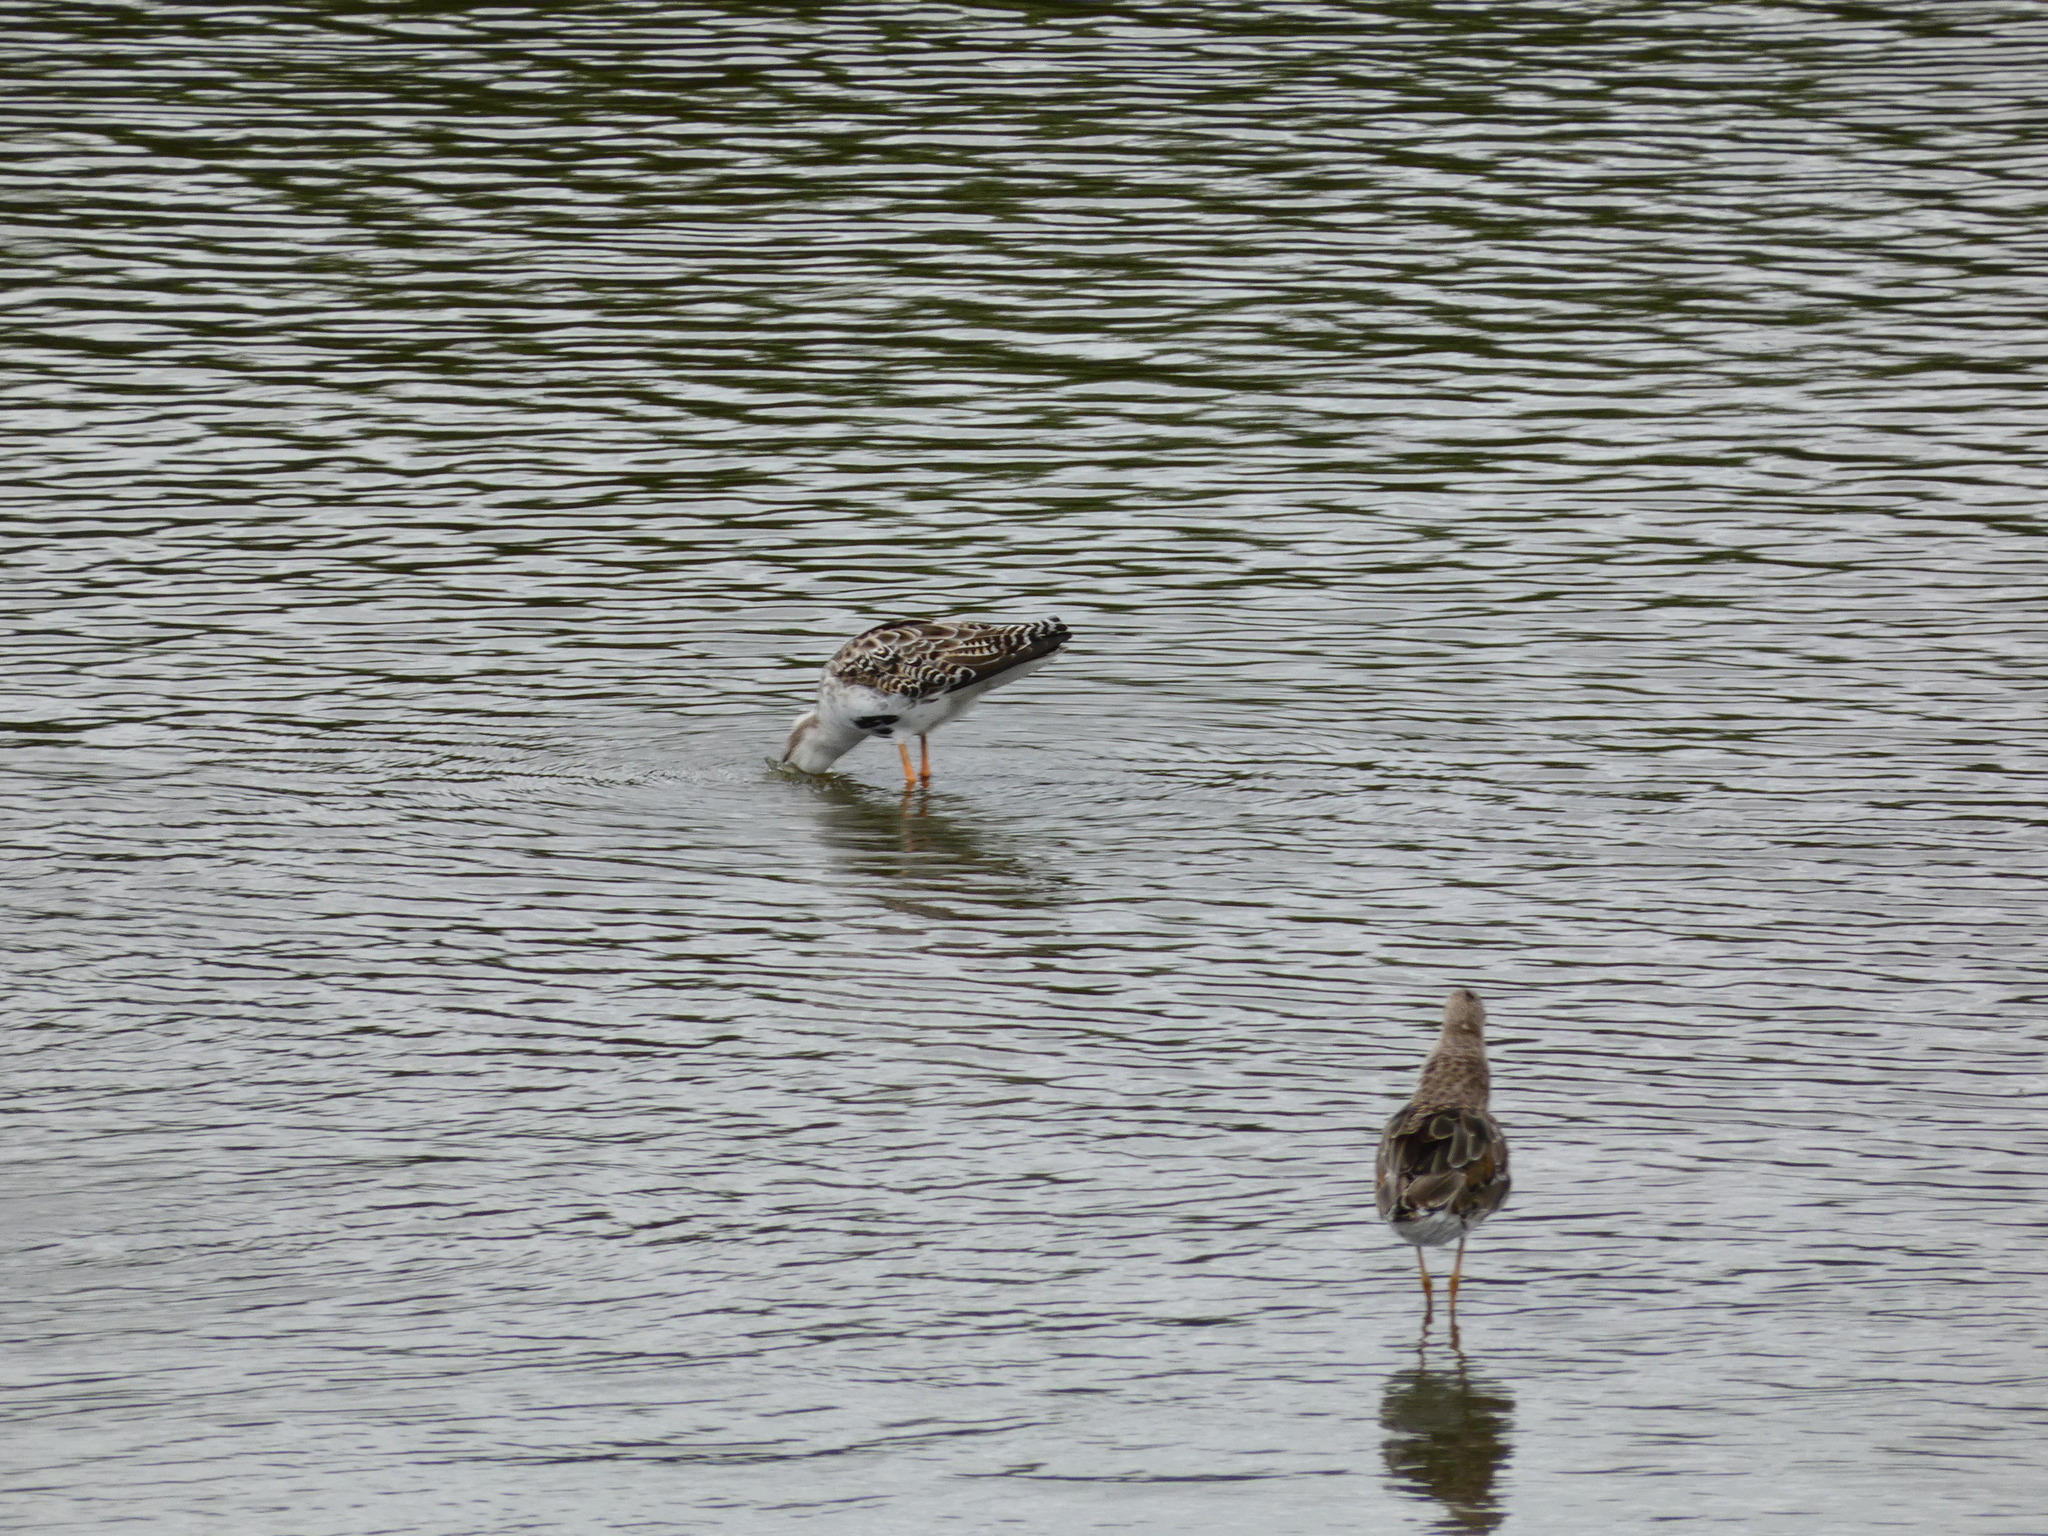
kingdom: Animalia
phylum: Chordata
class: Aves
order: Charadriiformes
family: Scolopacidae
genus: Calidris
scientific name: Calidris pugnax
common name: Ruff
